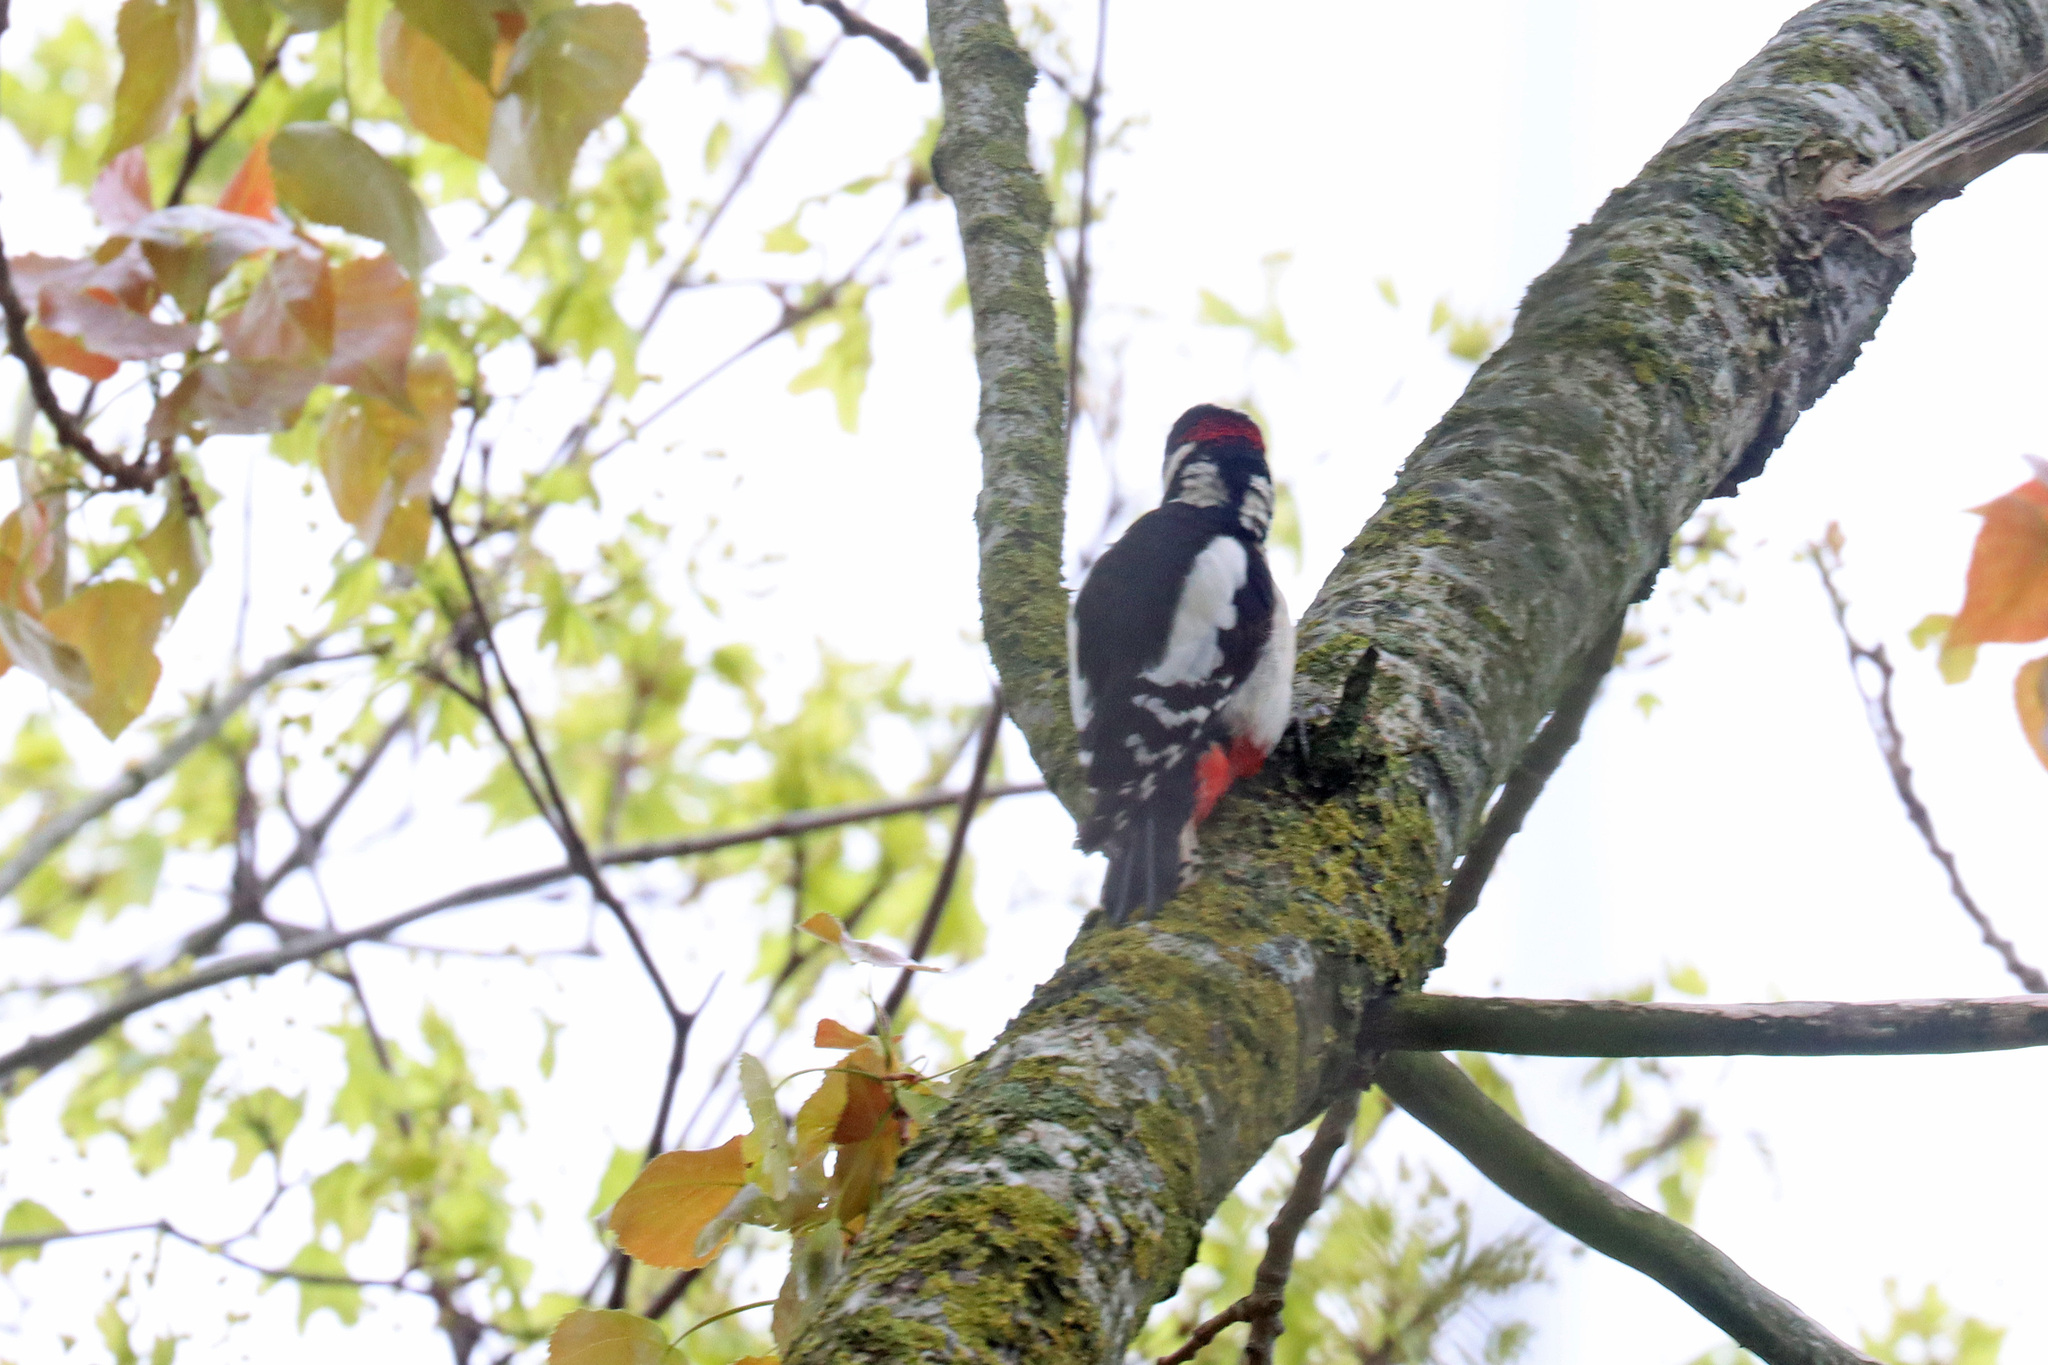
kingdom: Animalia
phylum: Chordata
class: Aves
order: Piciformes
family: Picidae
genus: Dendrocopos
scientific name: Dendrocopos major
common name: Great spotted woodpecker
